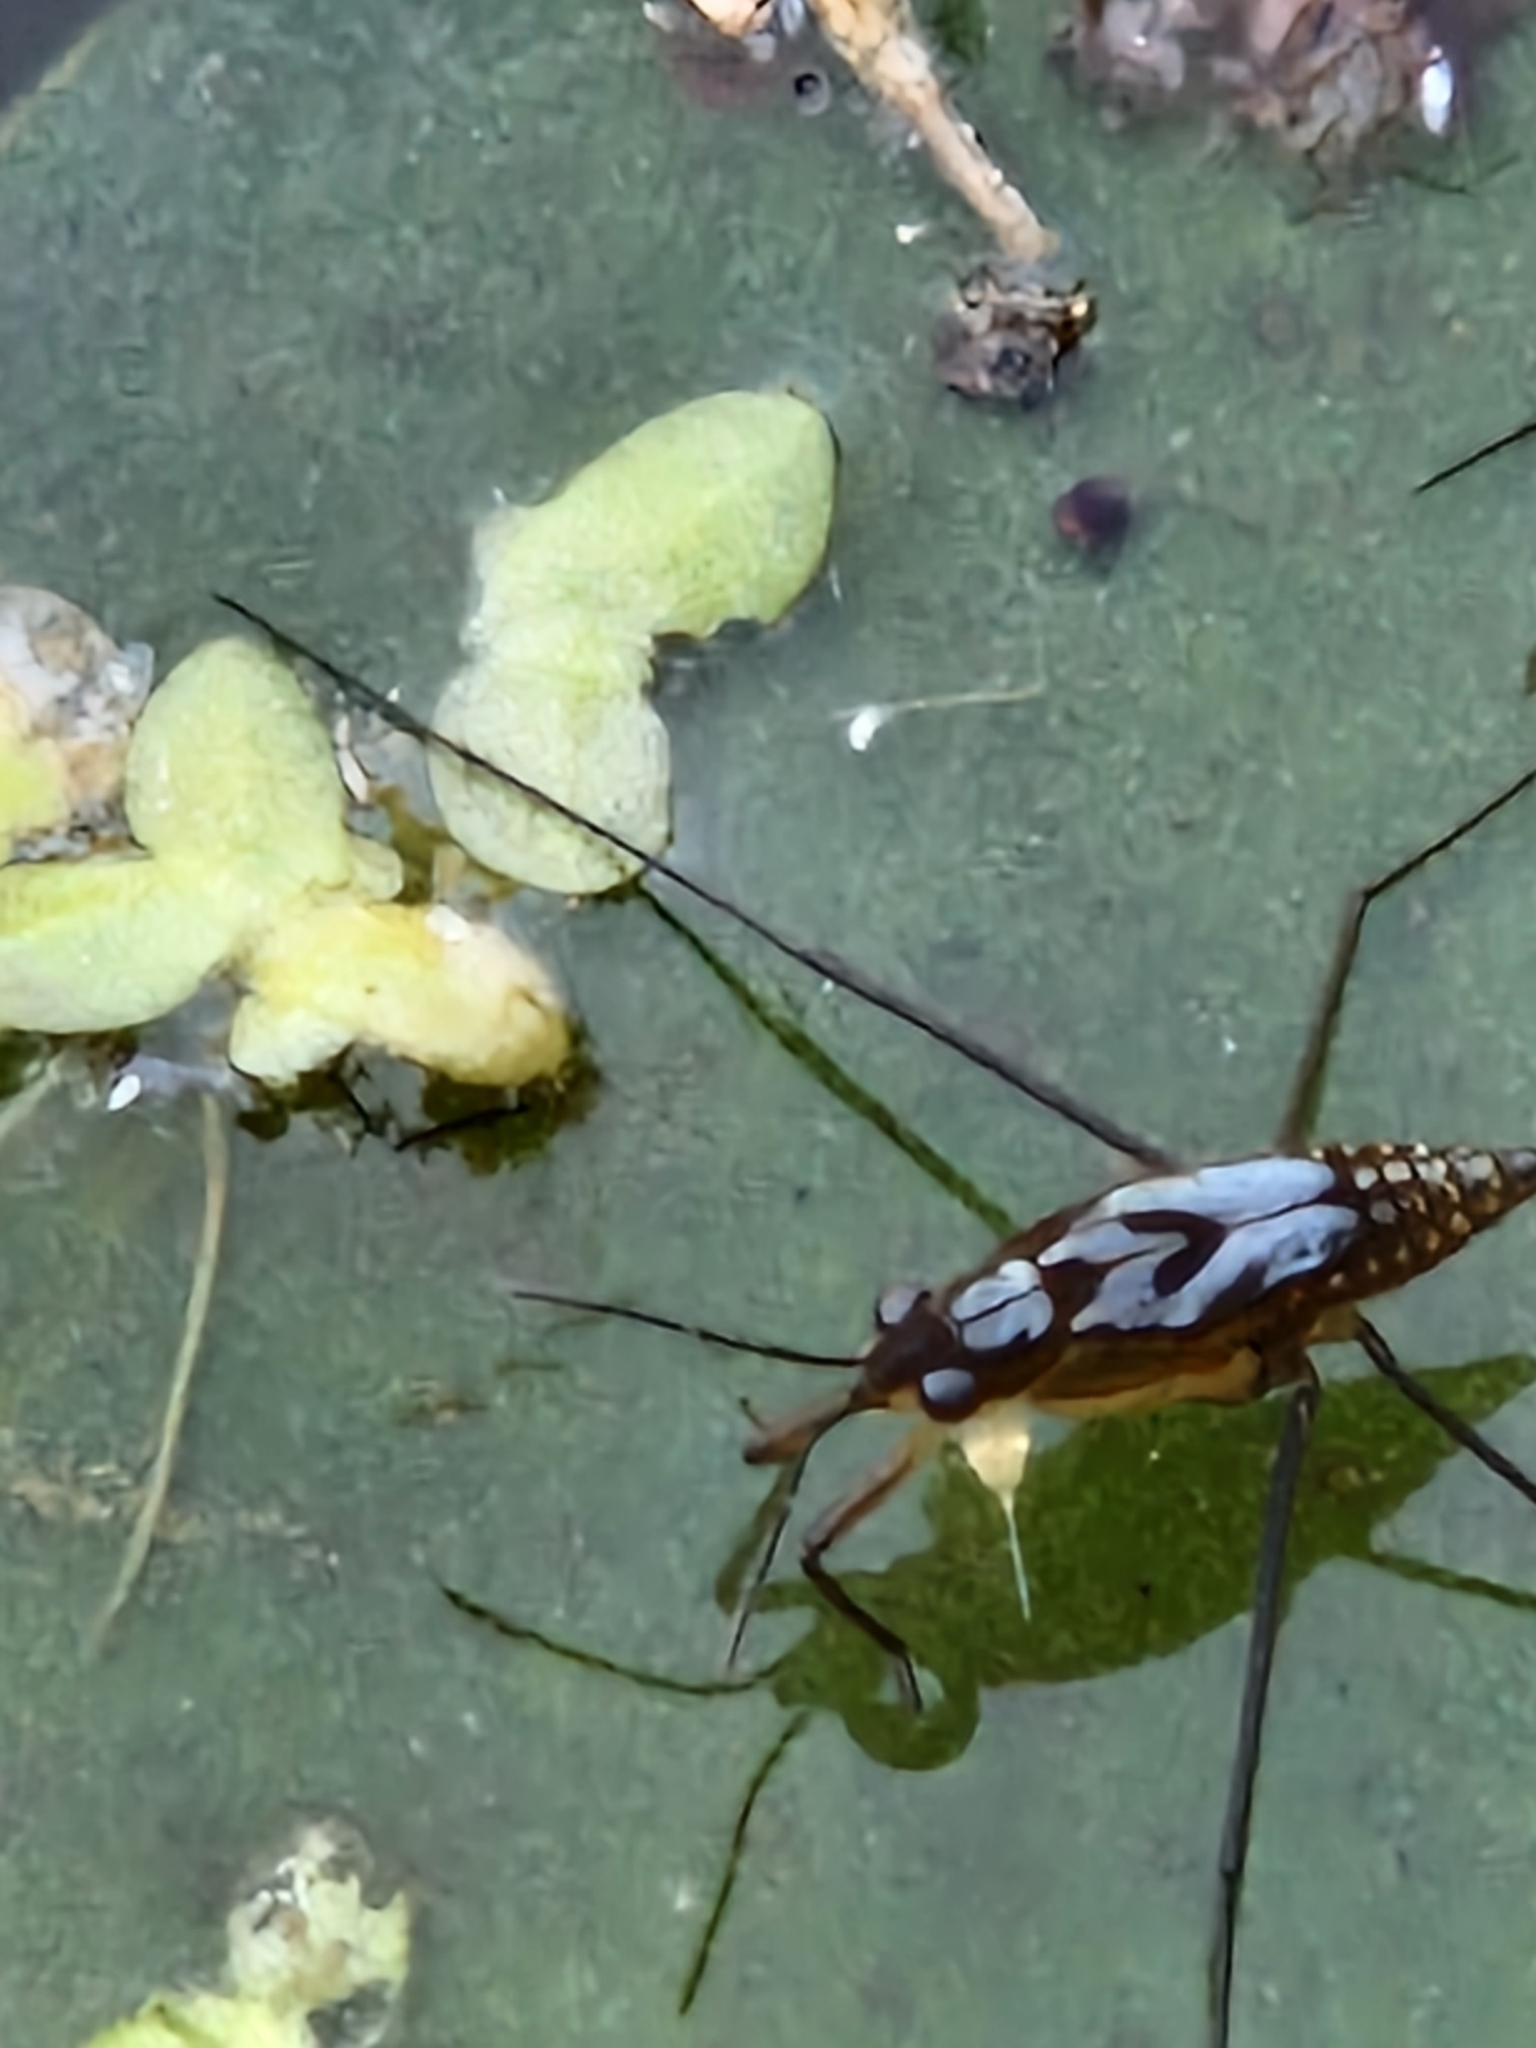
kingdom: Animalia
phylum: Arthropoda
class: Insecta
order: Hemiptera
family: Gerridae
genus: Gerris
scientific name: Gerris
